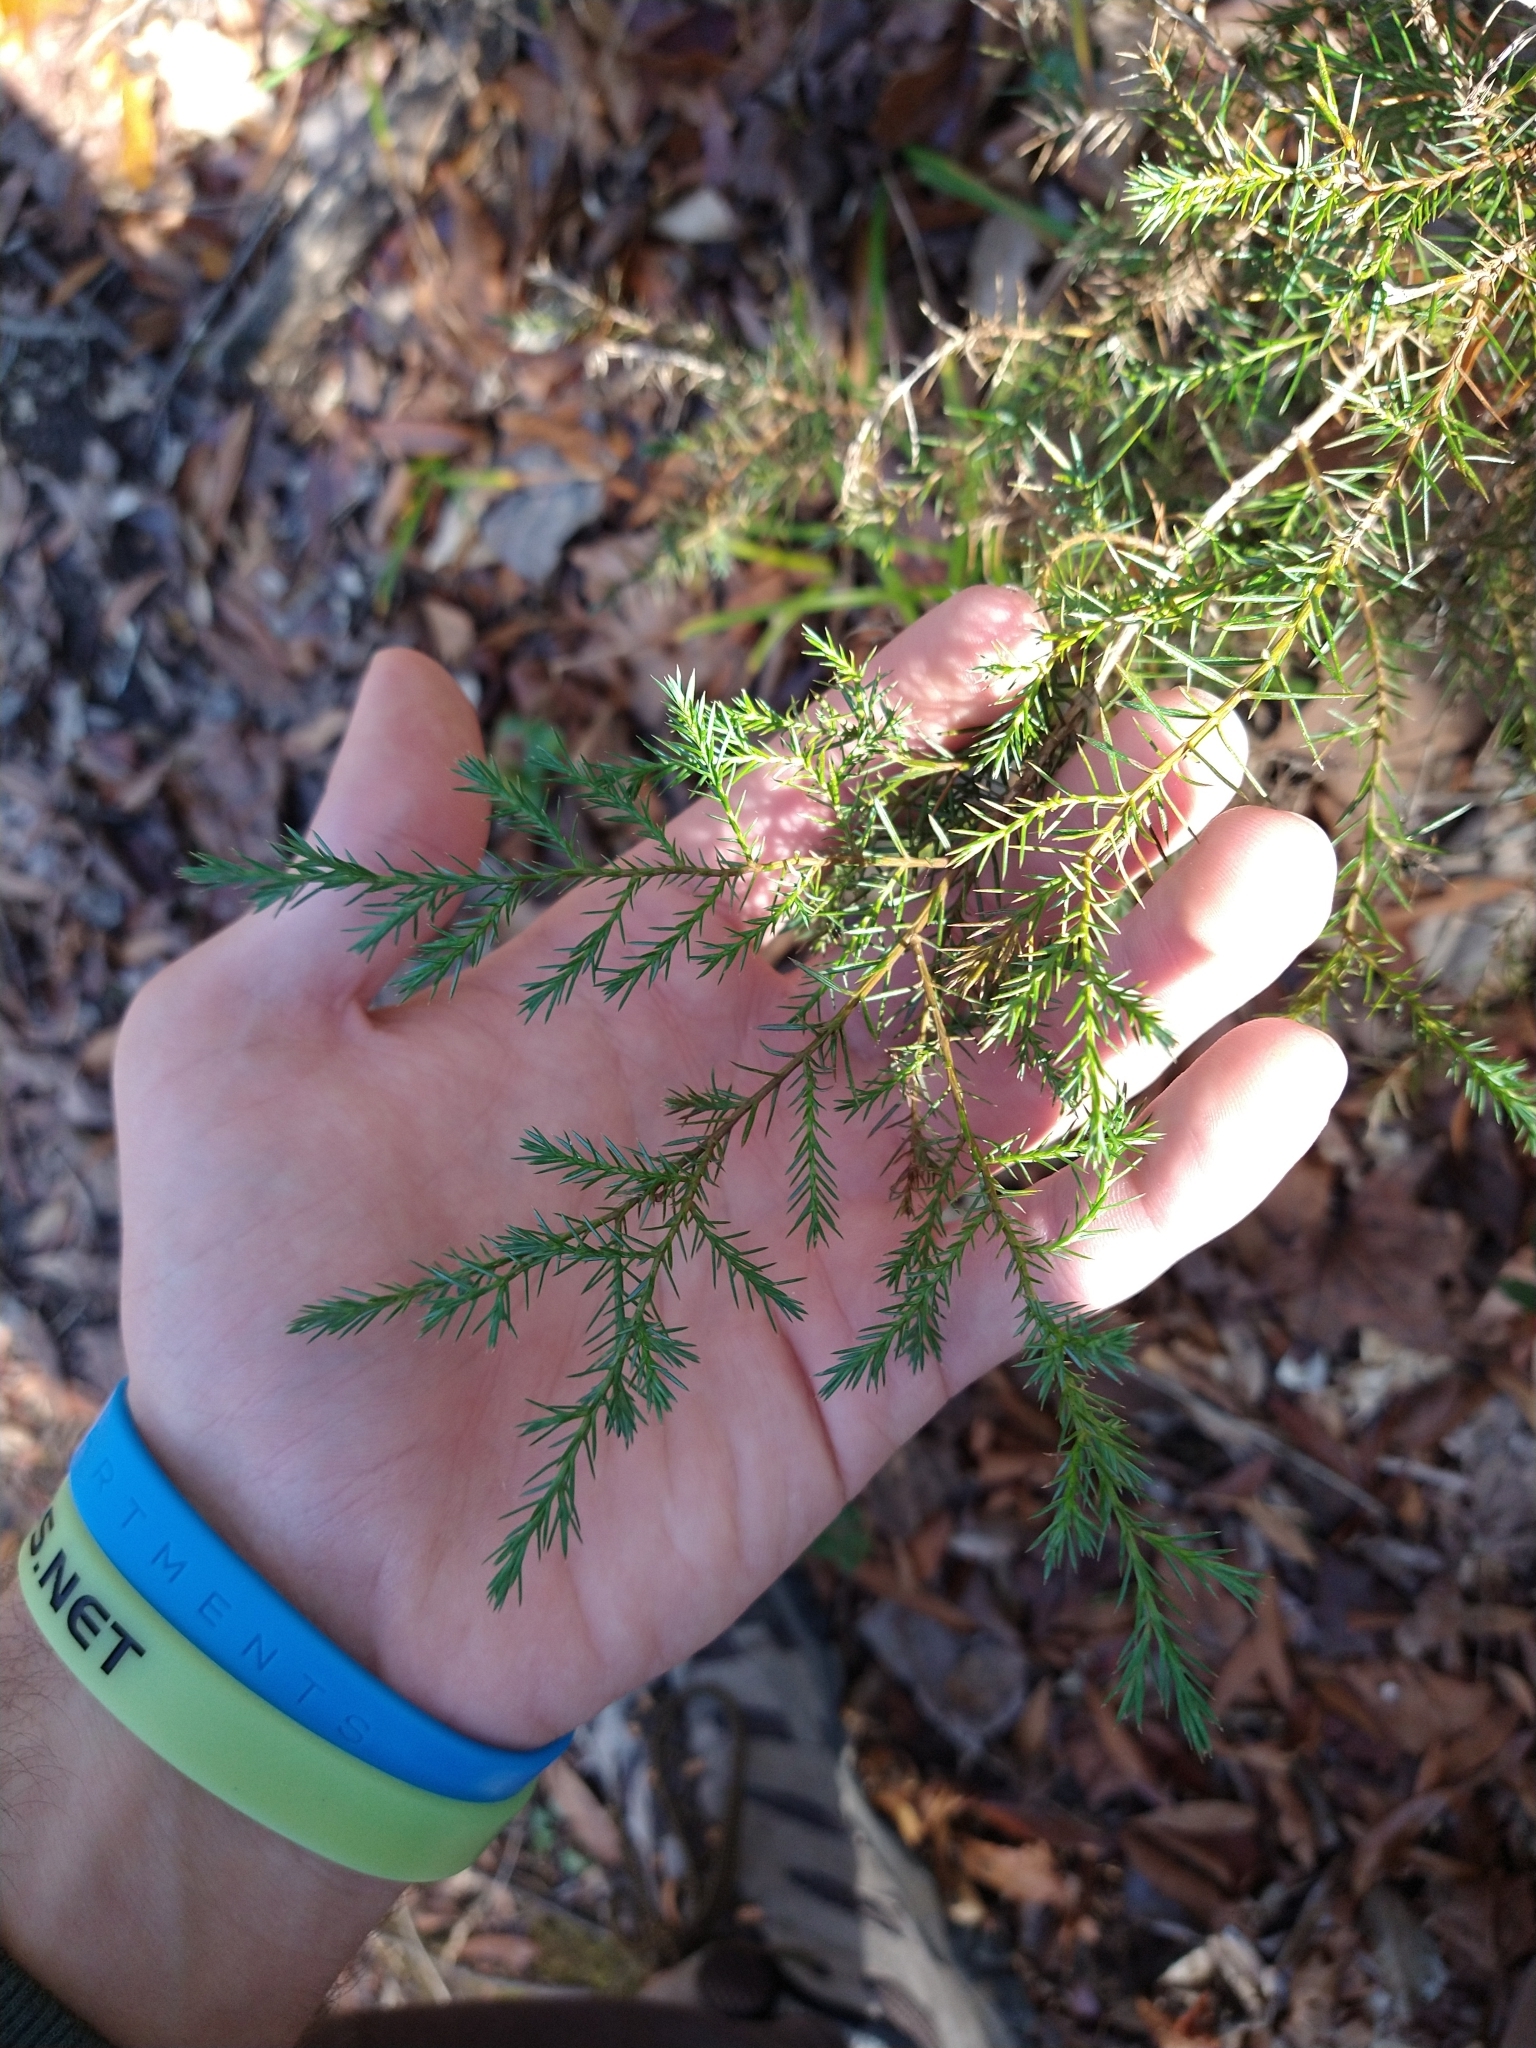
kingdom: Plantae
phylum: Tracheophyta
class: Pinopsida
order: Pinales
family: Cupressaceae
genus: Juniperus
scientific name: Juniperus virginiana
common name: Red juniper
